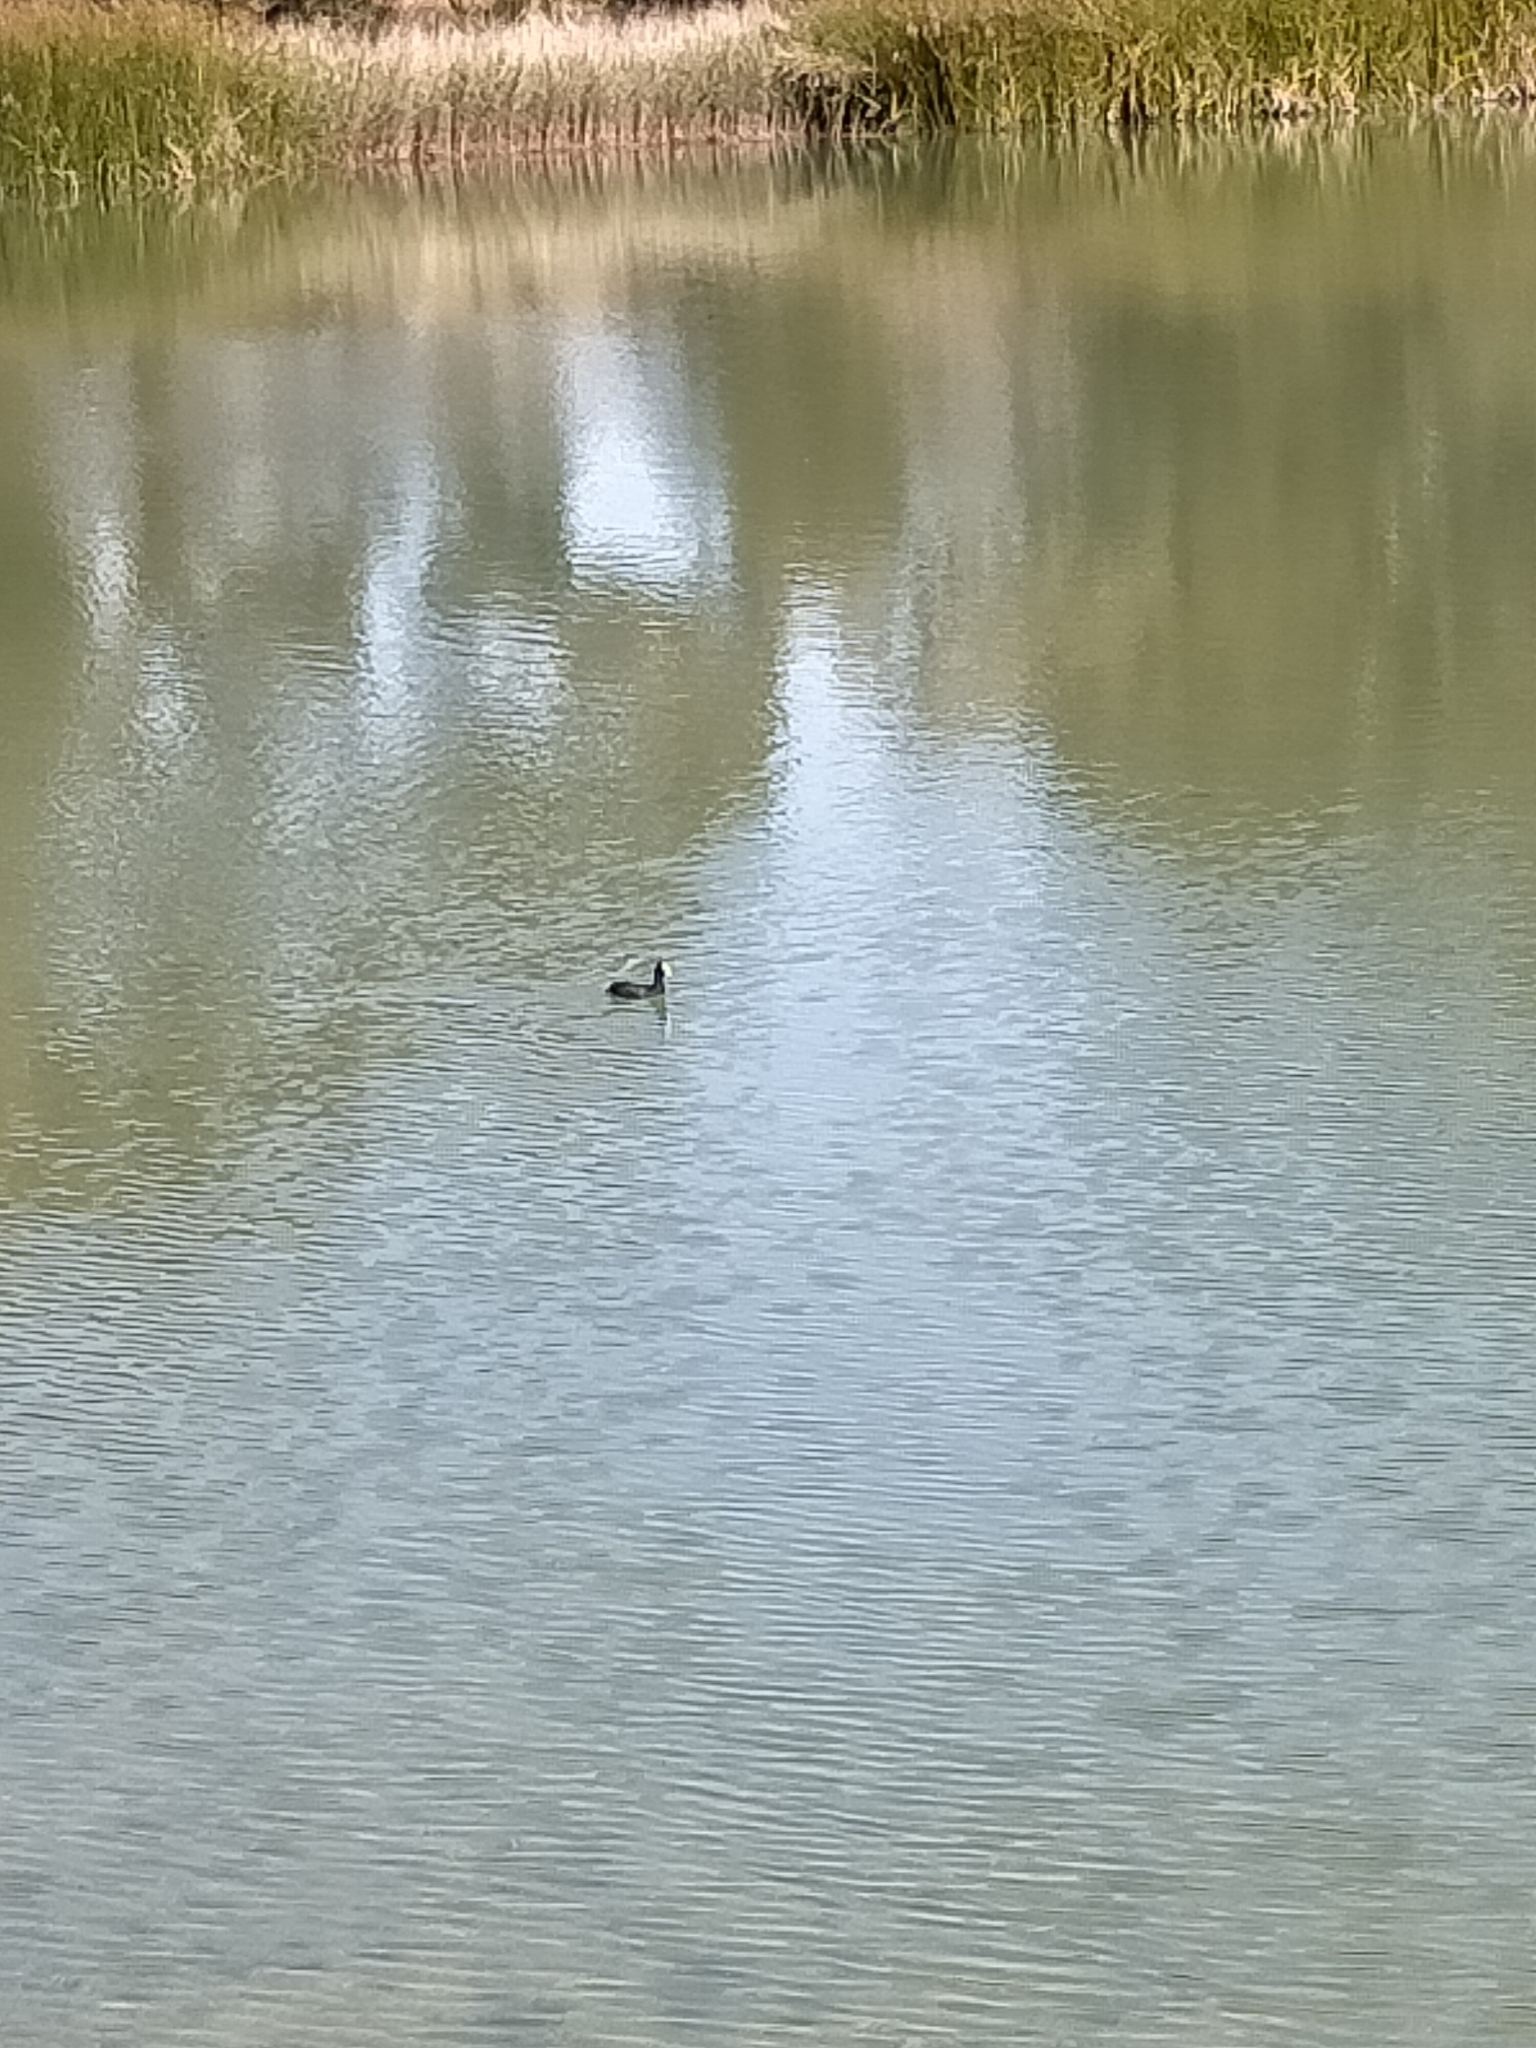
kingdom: Animalia
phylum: Chordata
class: Aves
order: Gruiformes
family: Rallidae
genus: Fulica
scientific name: Fulica atra
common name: Eurasian coot
